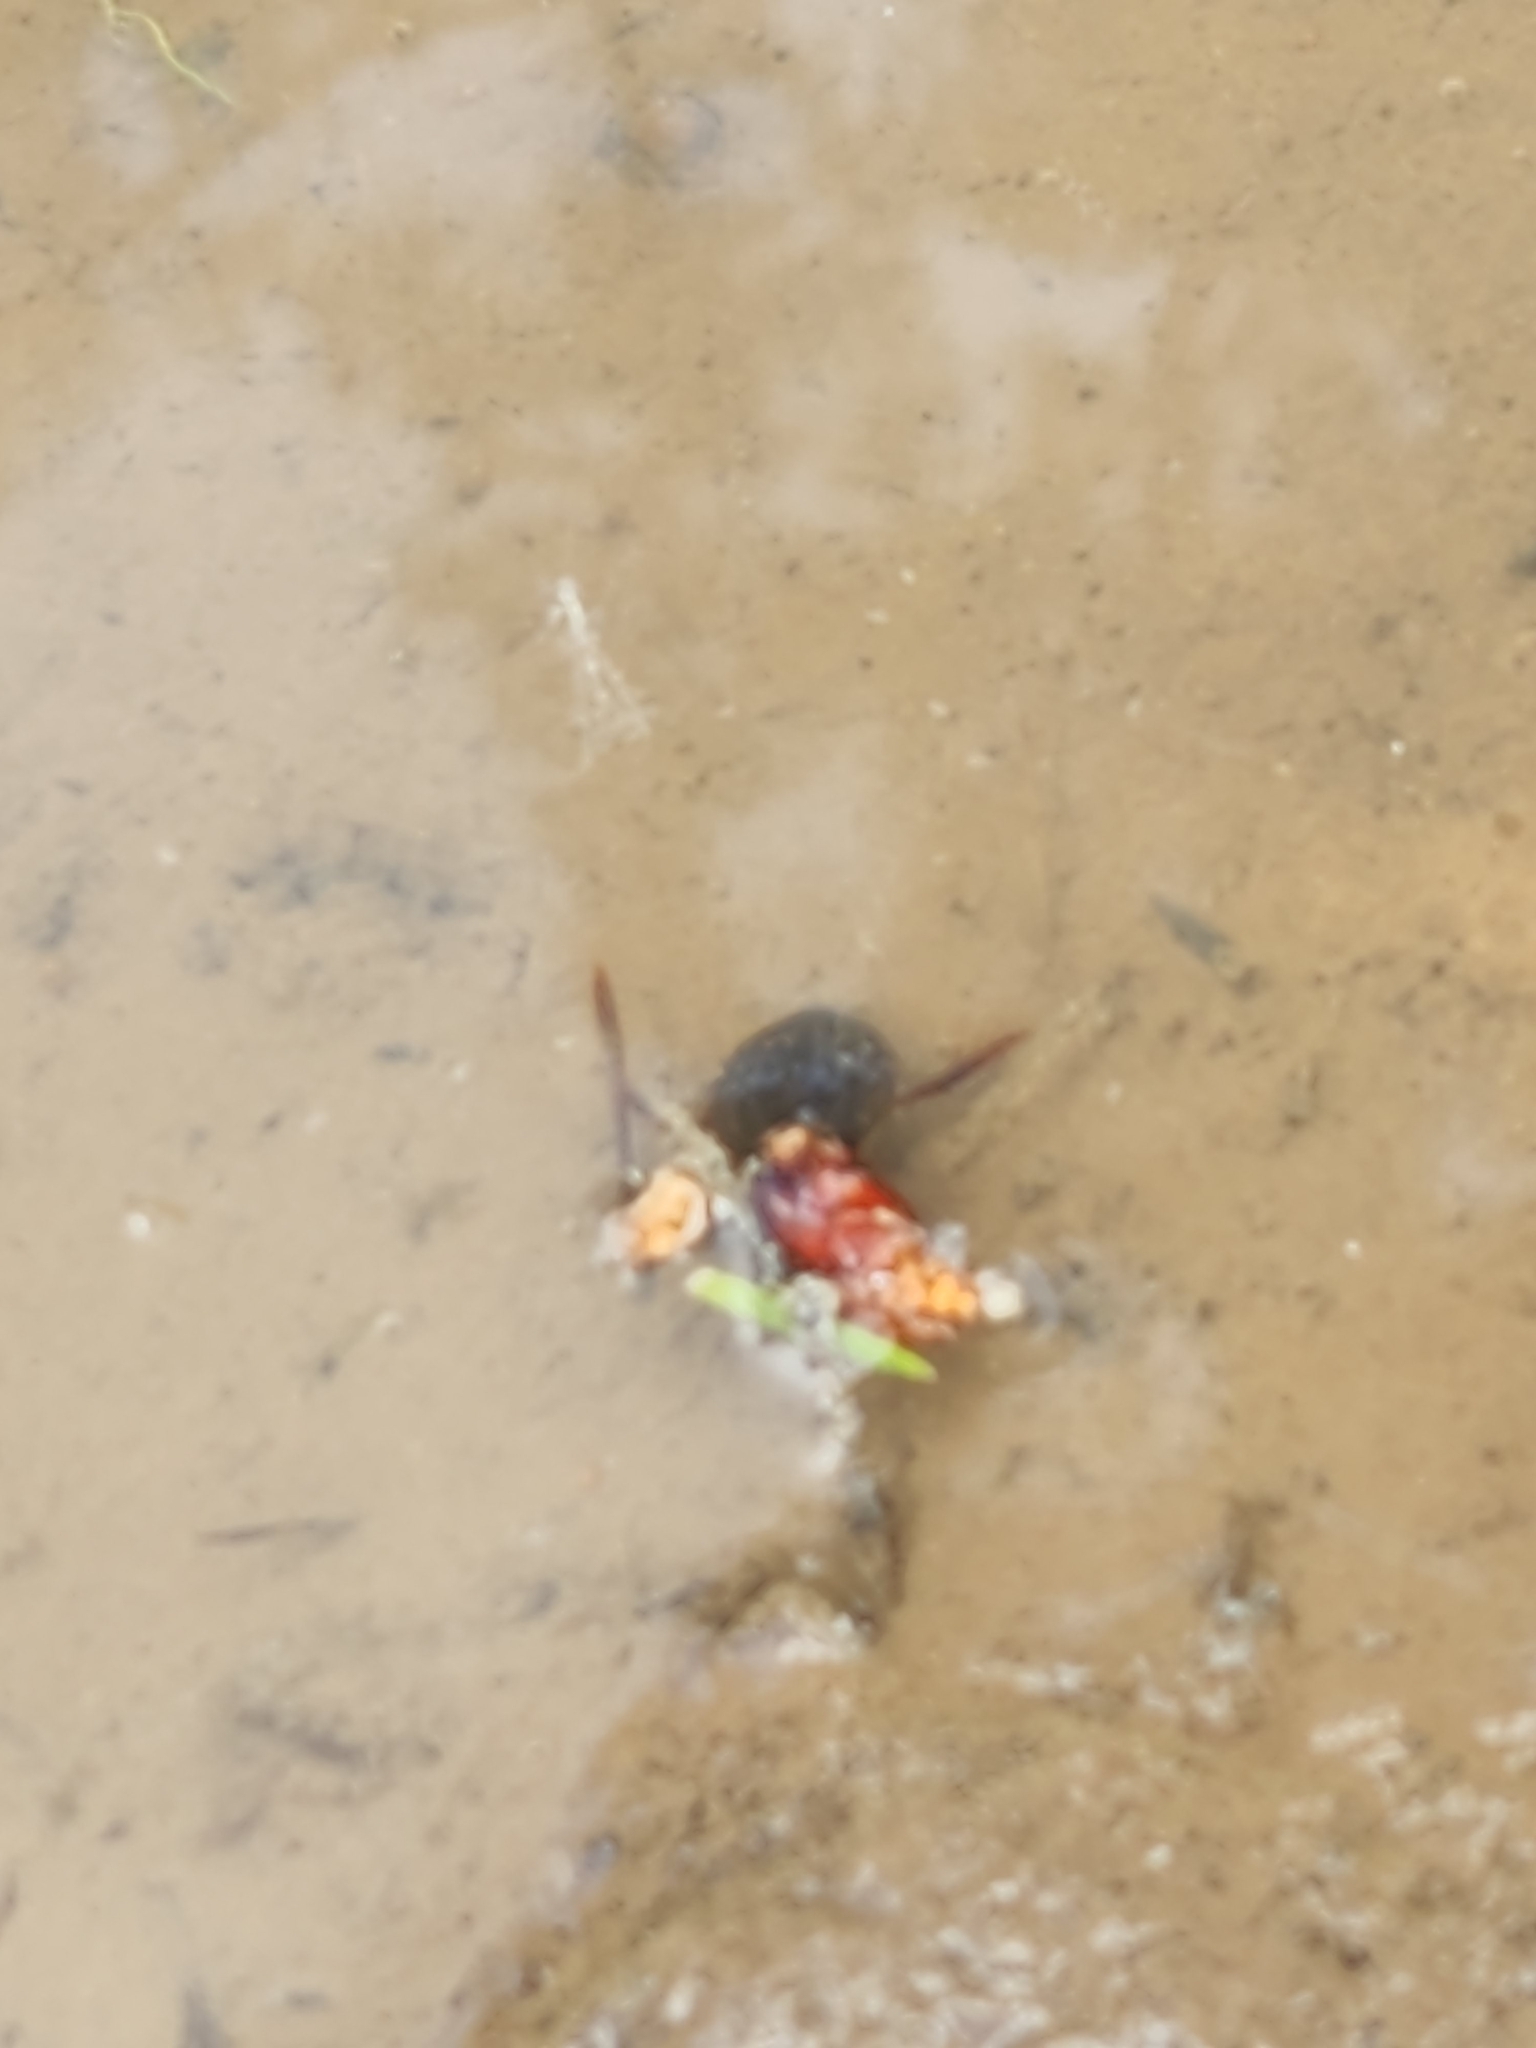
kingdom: Animalia
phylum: Arthropoda
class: Insecta
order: Coleoptera
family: Dytiscidae
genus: Acilius
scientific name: Acilius abbreviatus
